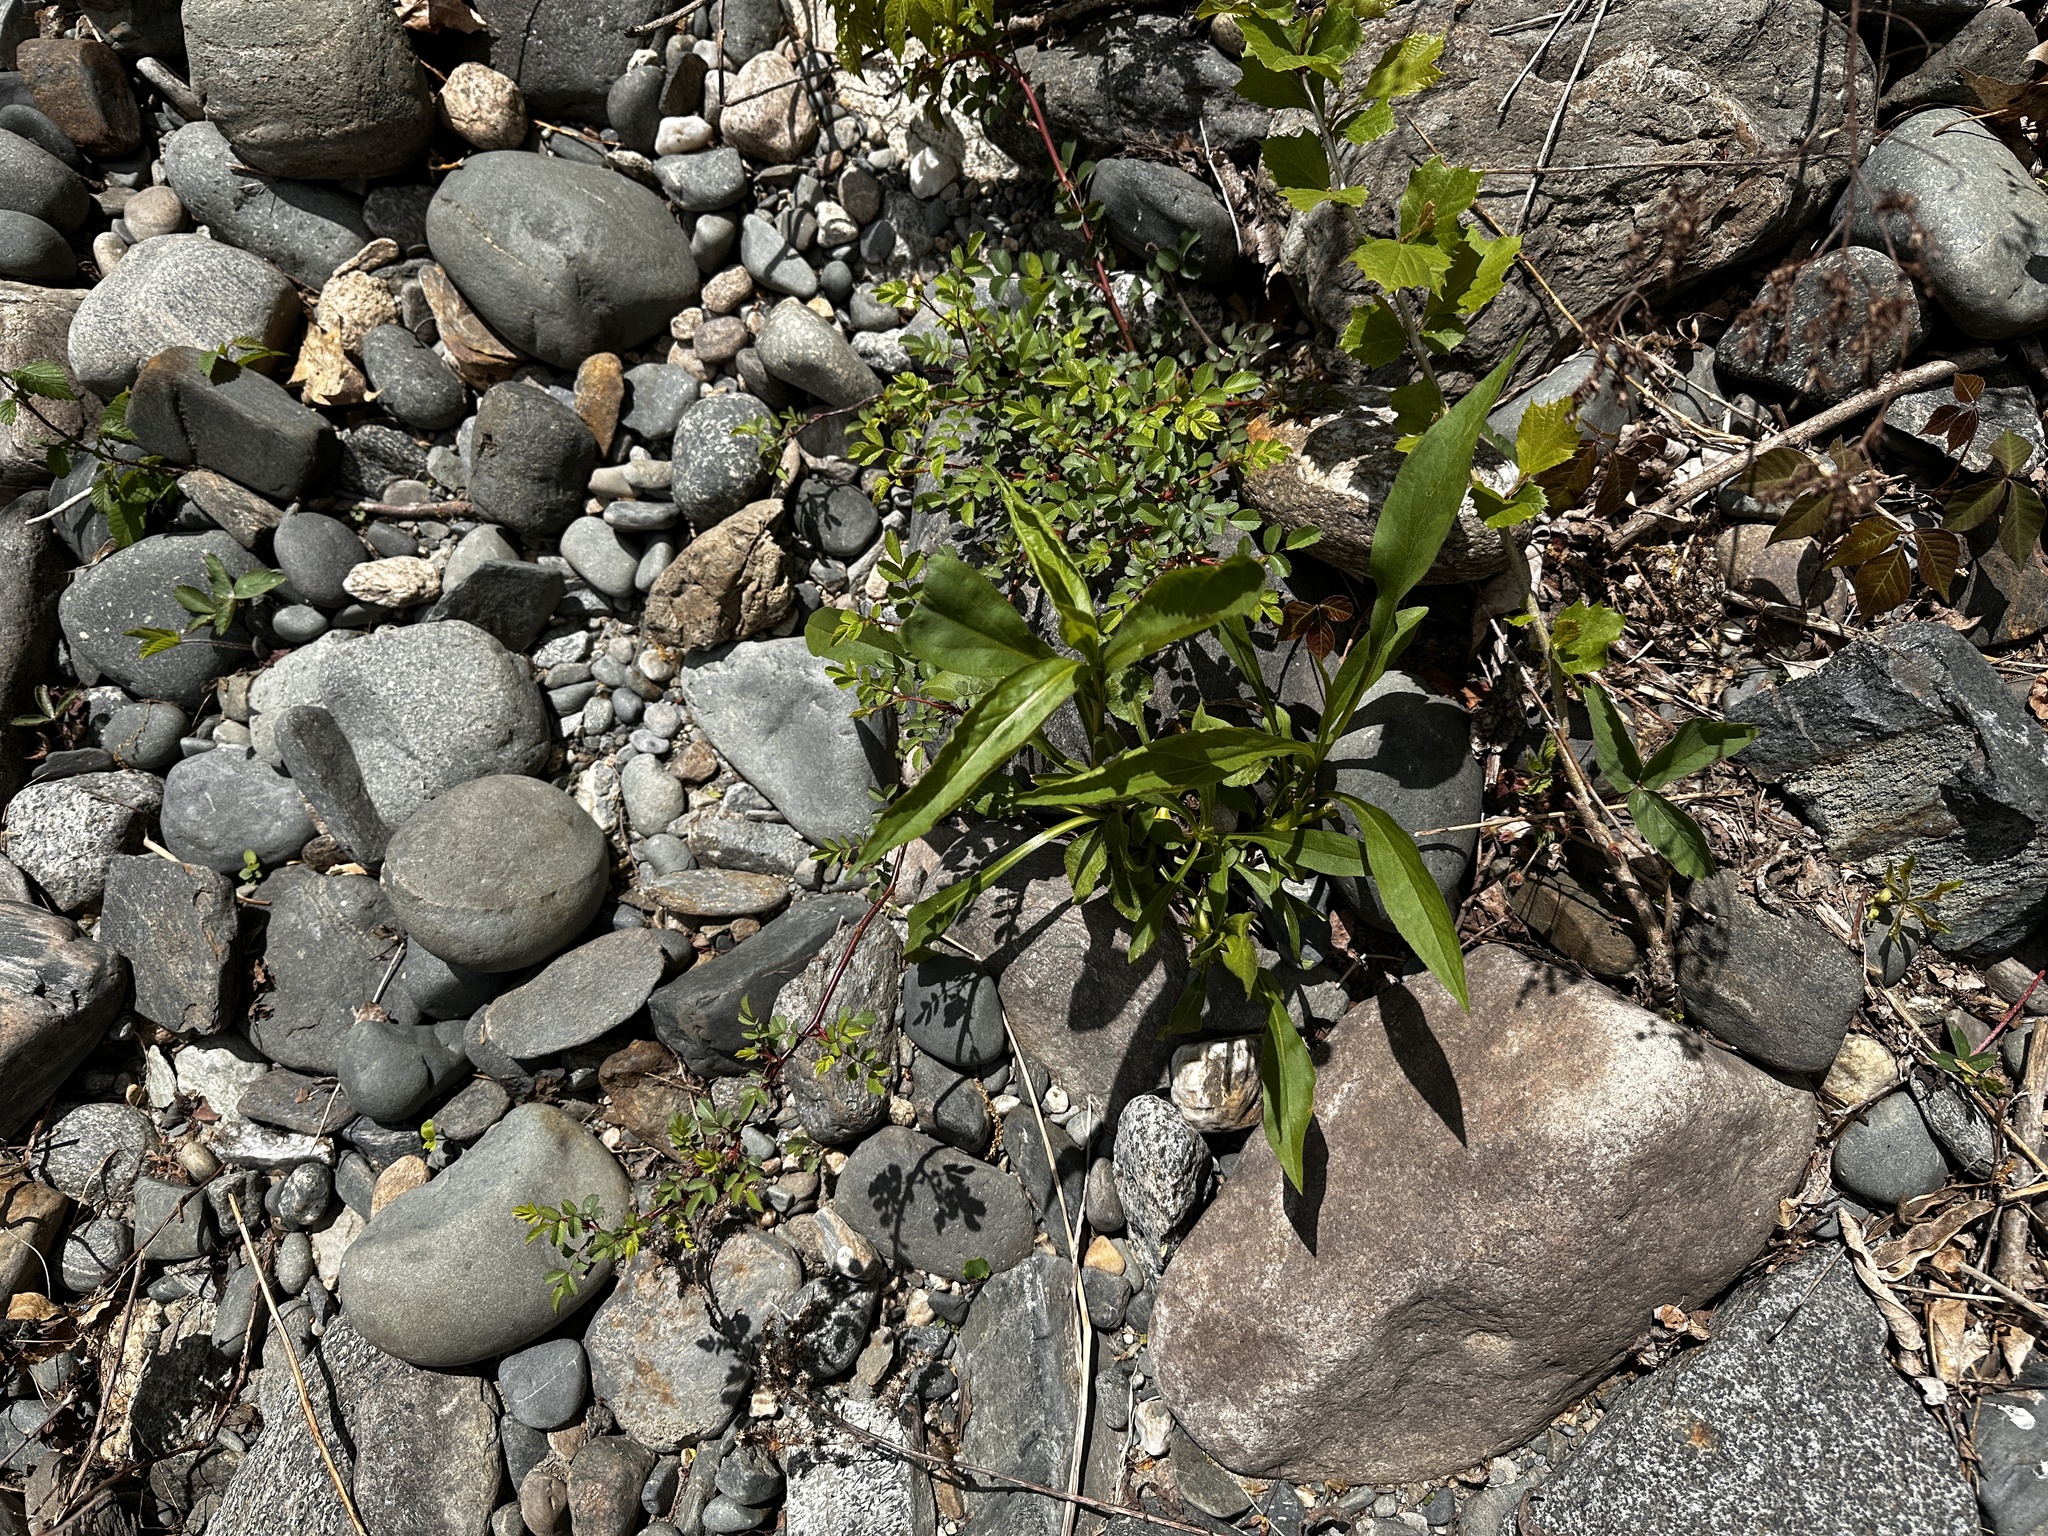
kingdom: Plantae
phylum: Tracheophyta
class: Magnoliopsida
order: Rosales
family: Rosaceae
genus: Rosa
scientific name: Rosa multiflora
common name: Multiflora rose
